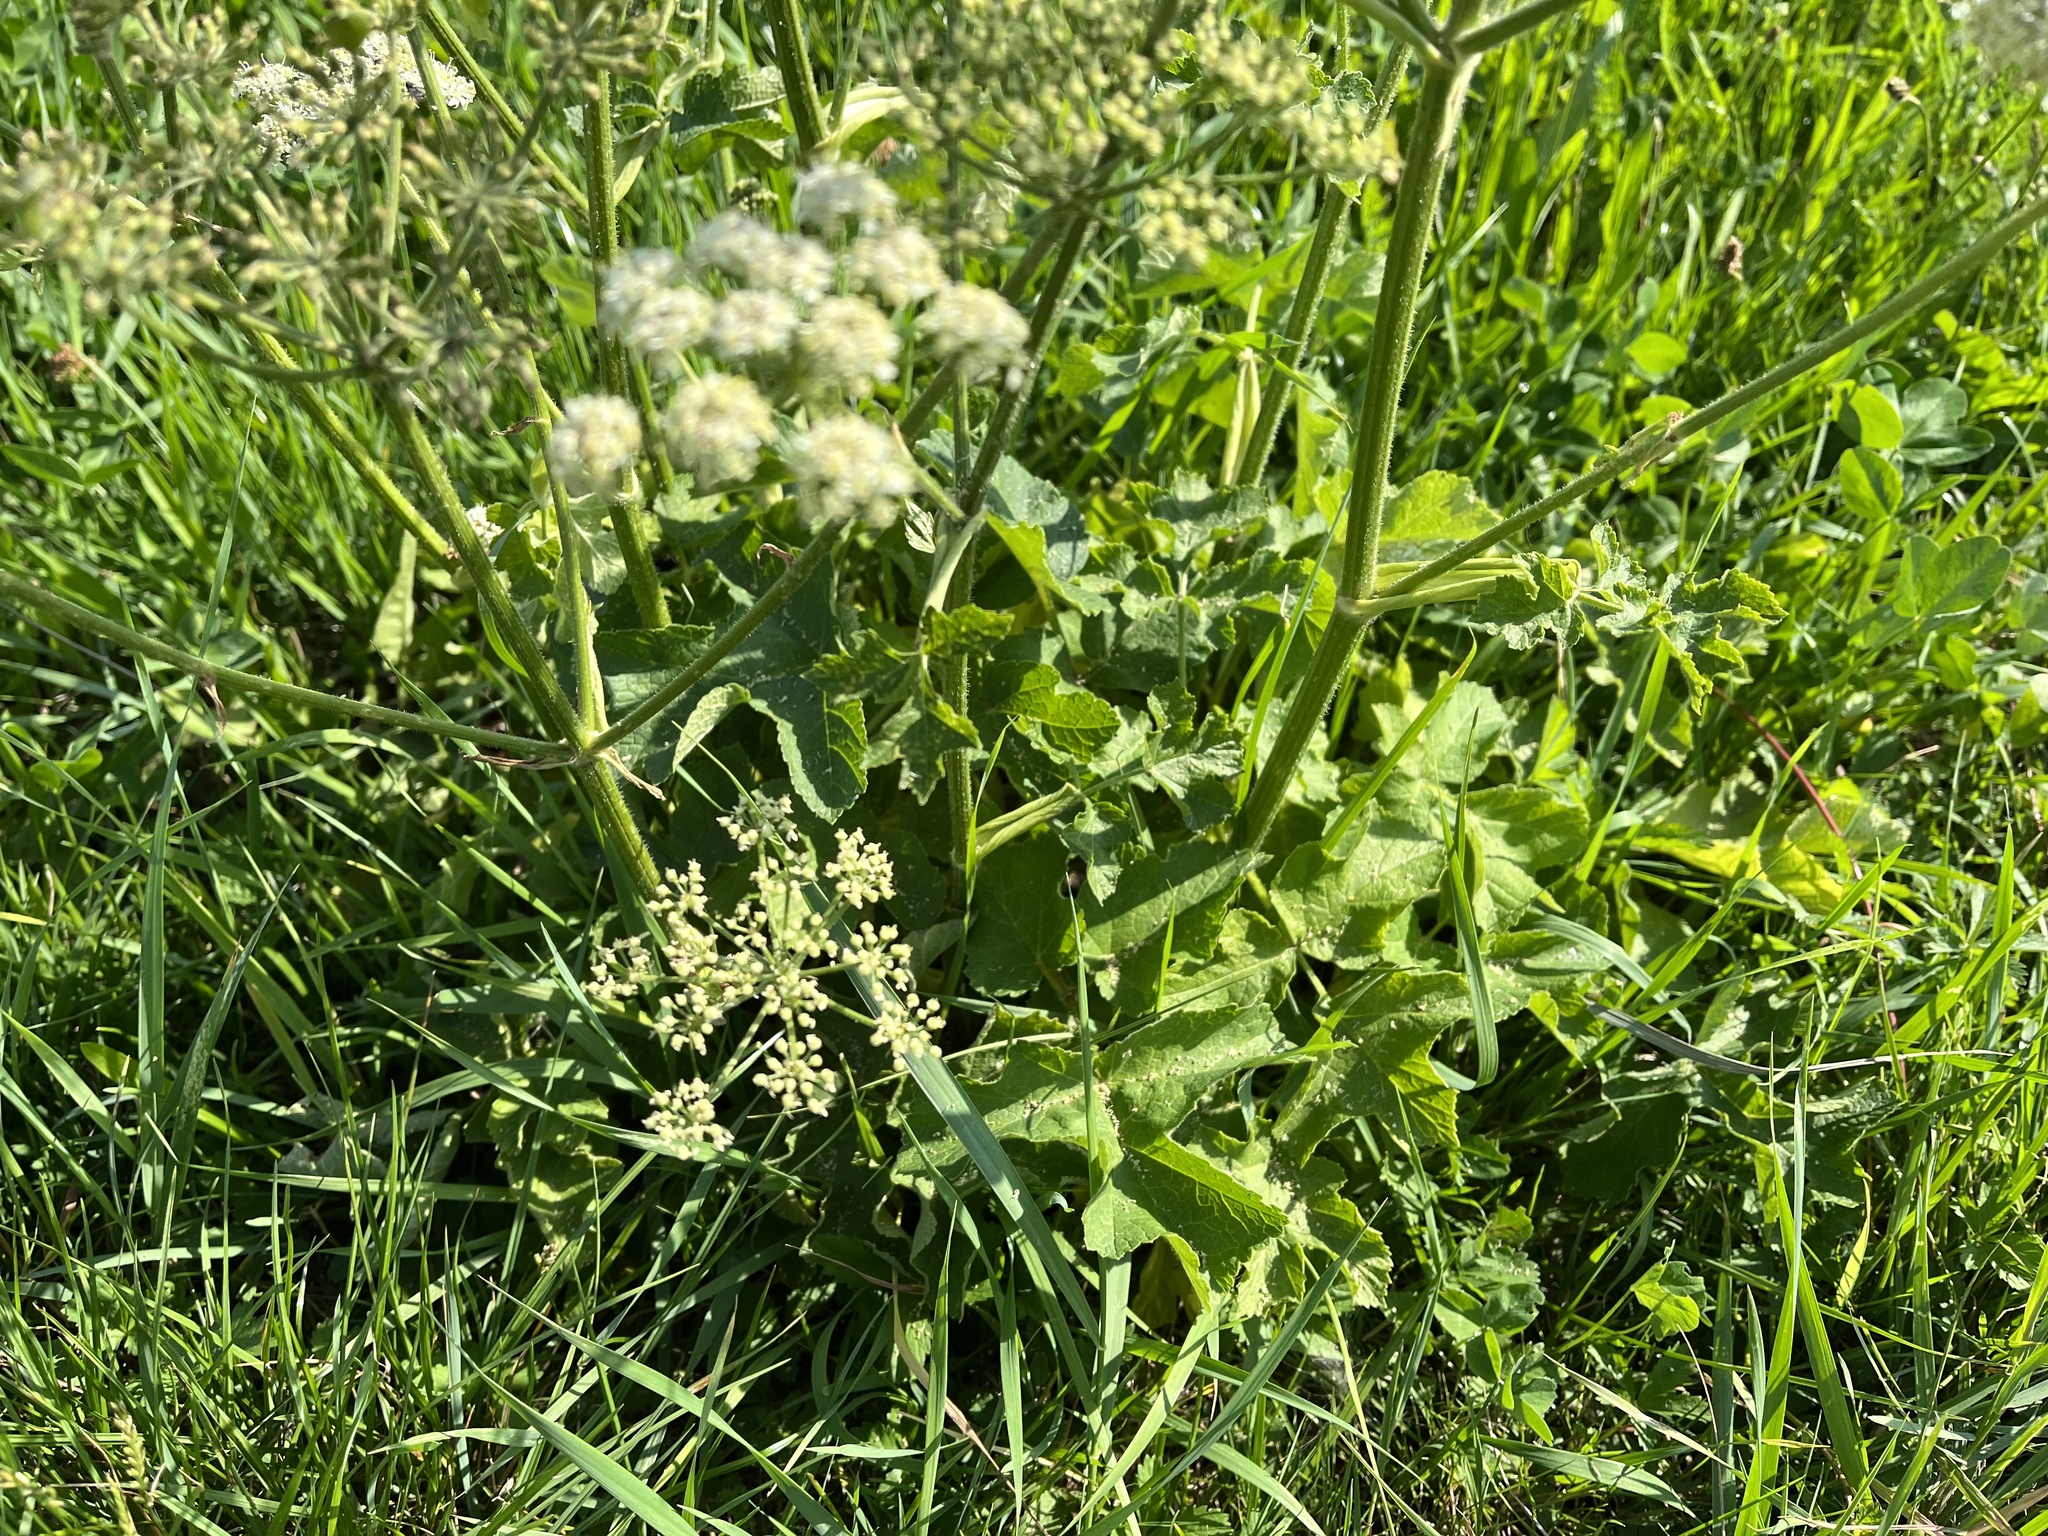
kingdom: Plantae
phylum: Tracheophyta
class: Magnoliopsida
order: Apiales
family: Apiaceae
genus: Heracleum
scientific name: Heracleum sphondylium
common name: Hogweed
